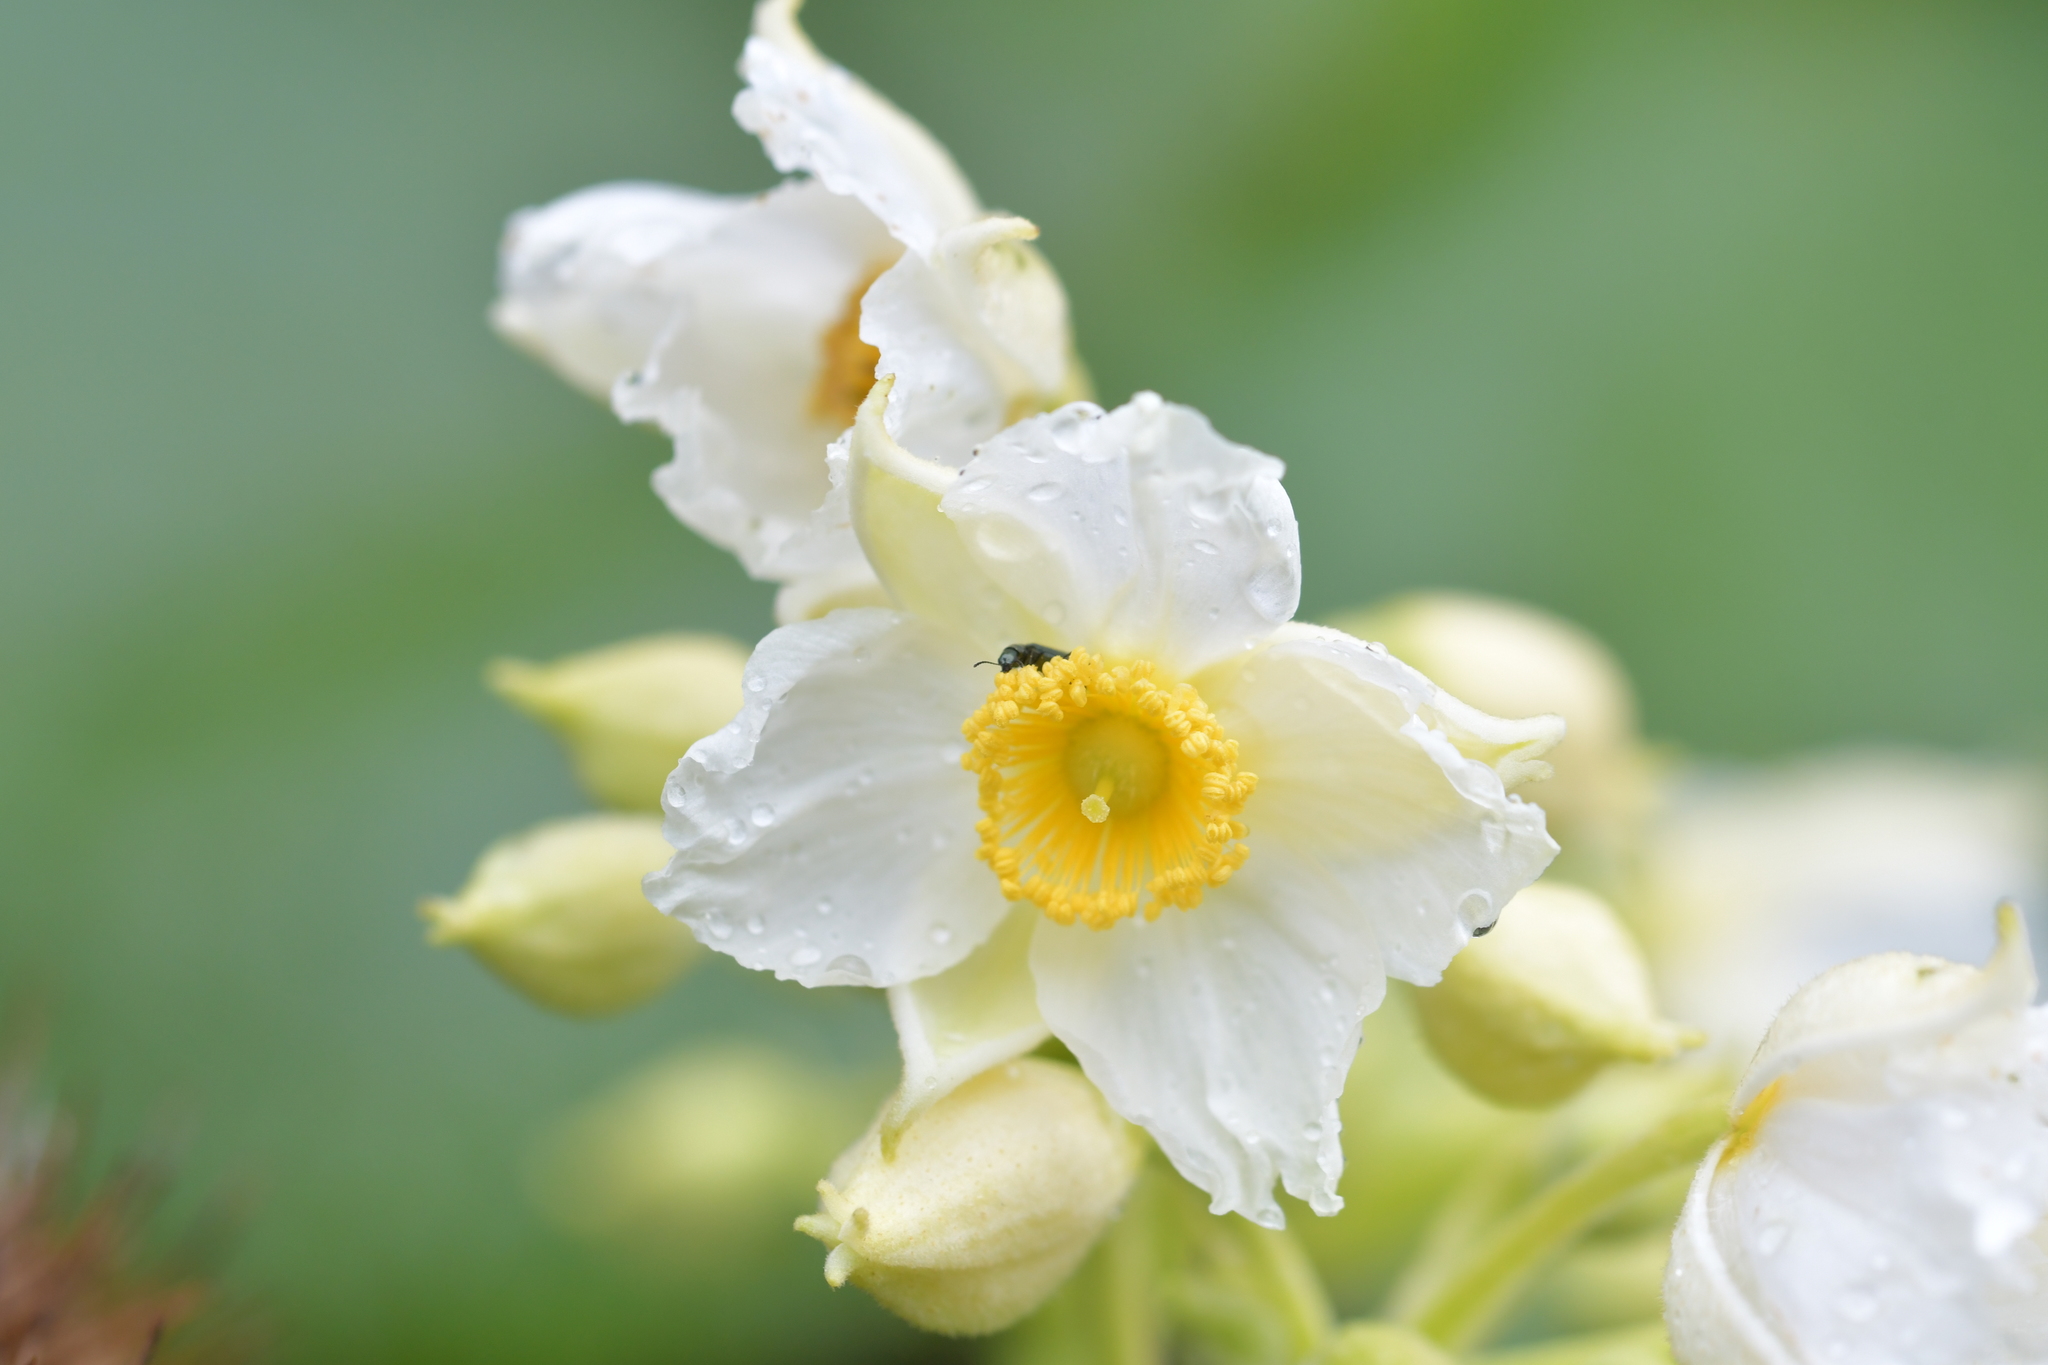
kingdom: Plantae
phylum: Tracheophyta
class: Magnoliopsida
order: Malvales
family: Malvaceae
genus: Entelea
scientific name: Entelea arborescens
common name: New zealand-mulberry
